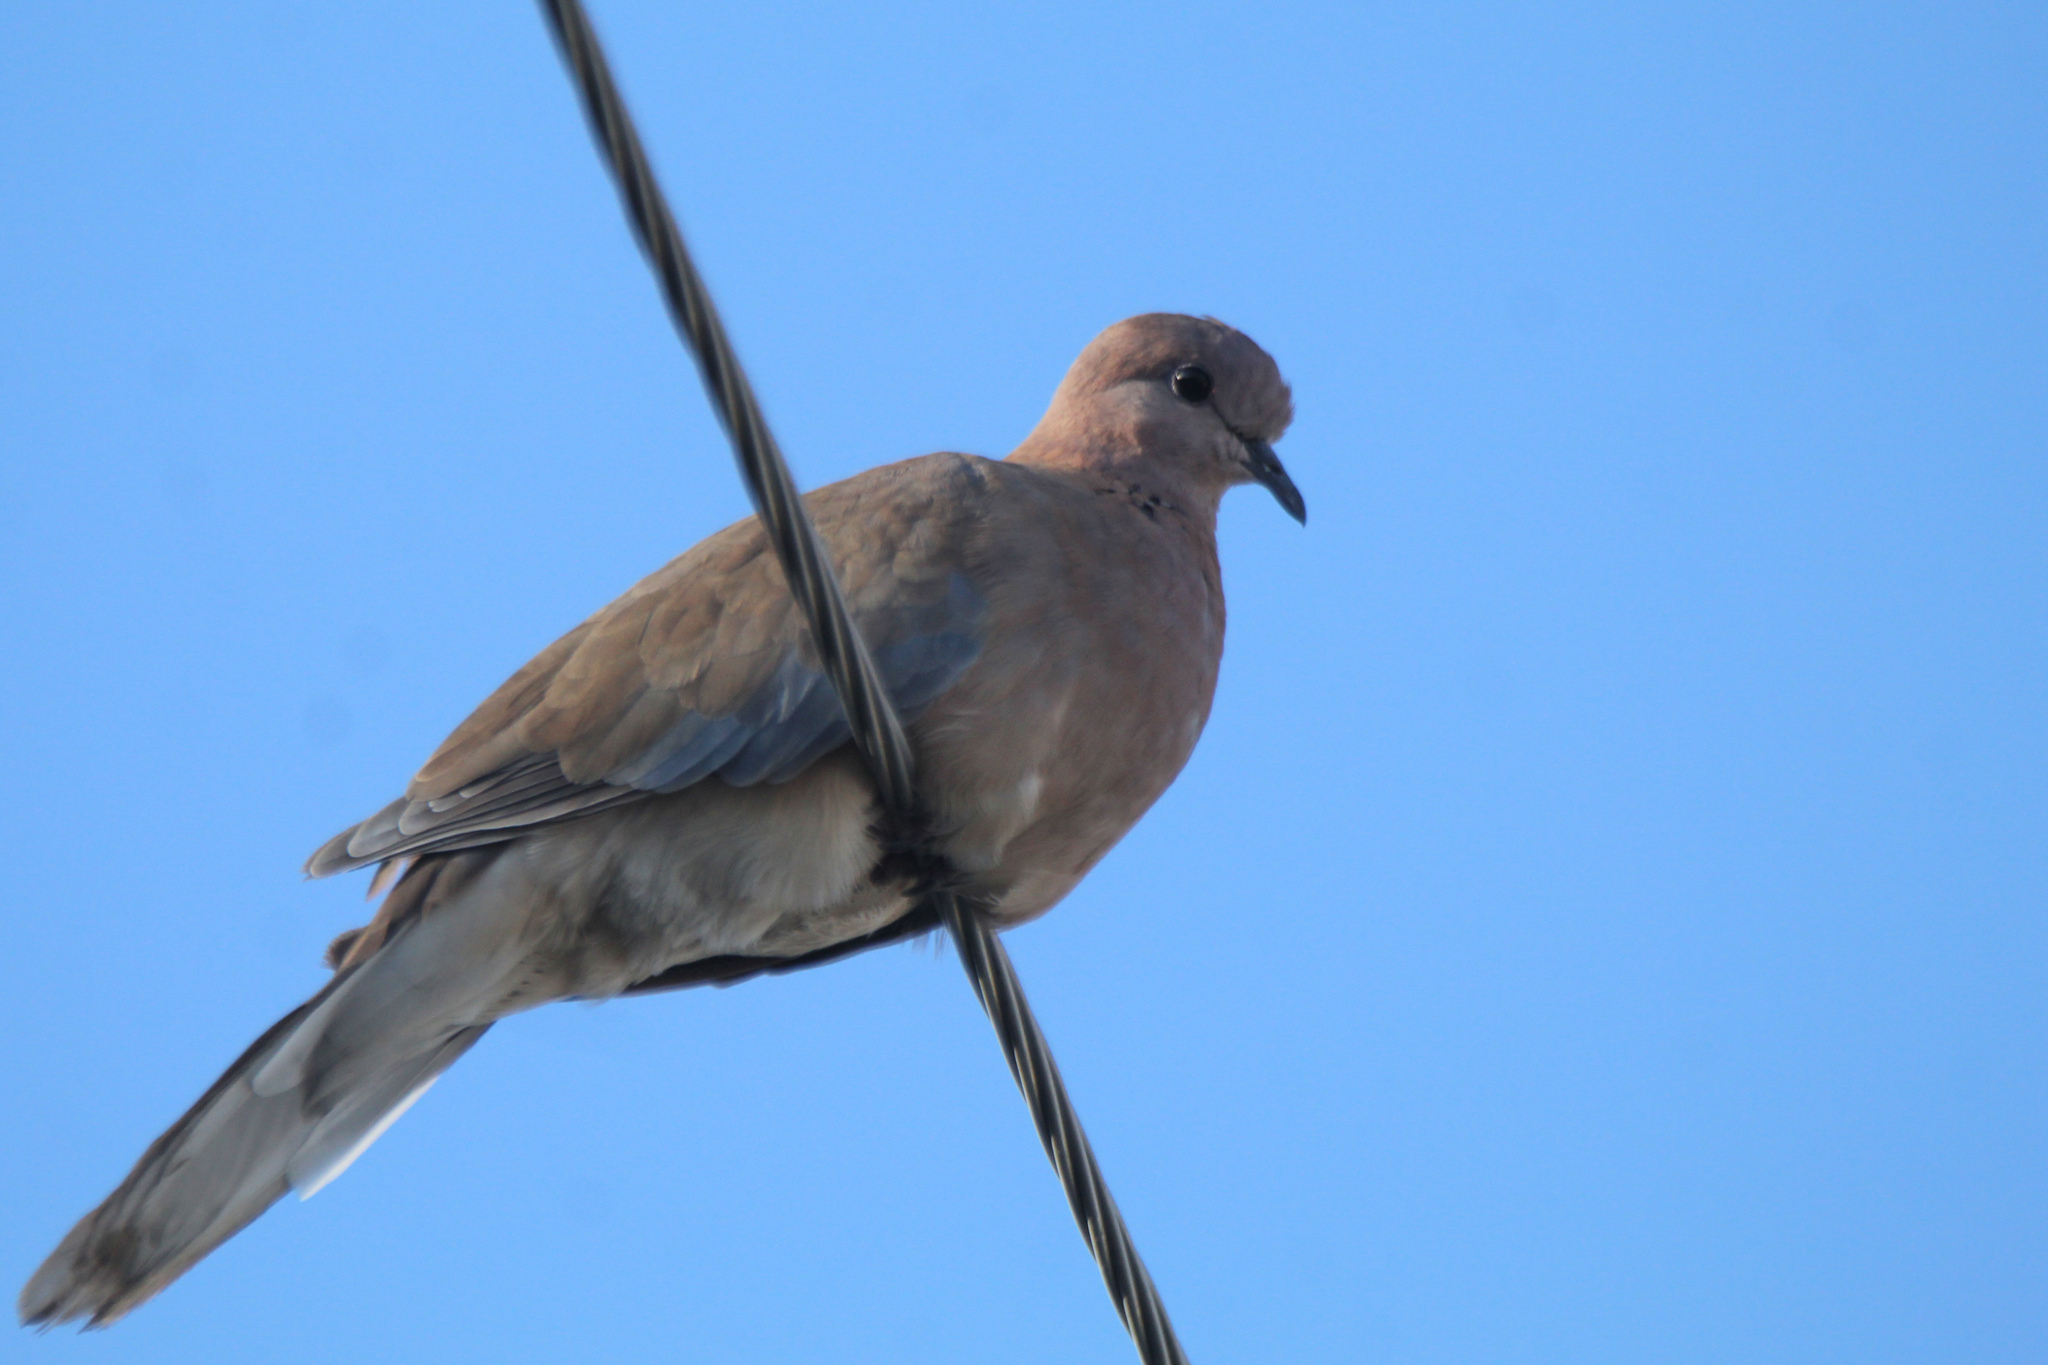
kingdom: Animalia
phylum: Chordata
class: Aves
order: Columbiformes
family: Columbidae
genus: Spilopelia
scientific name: Spilopelia senegalensis
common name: Laughing dove
